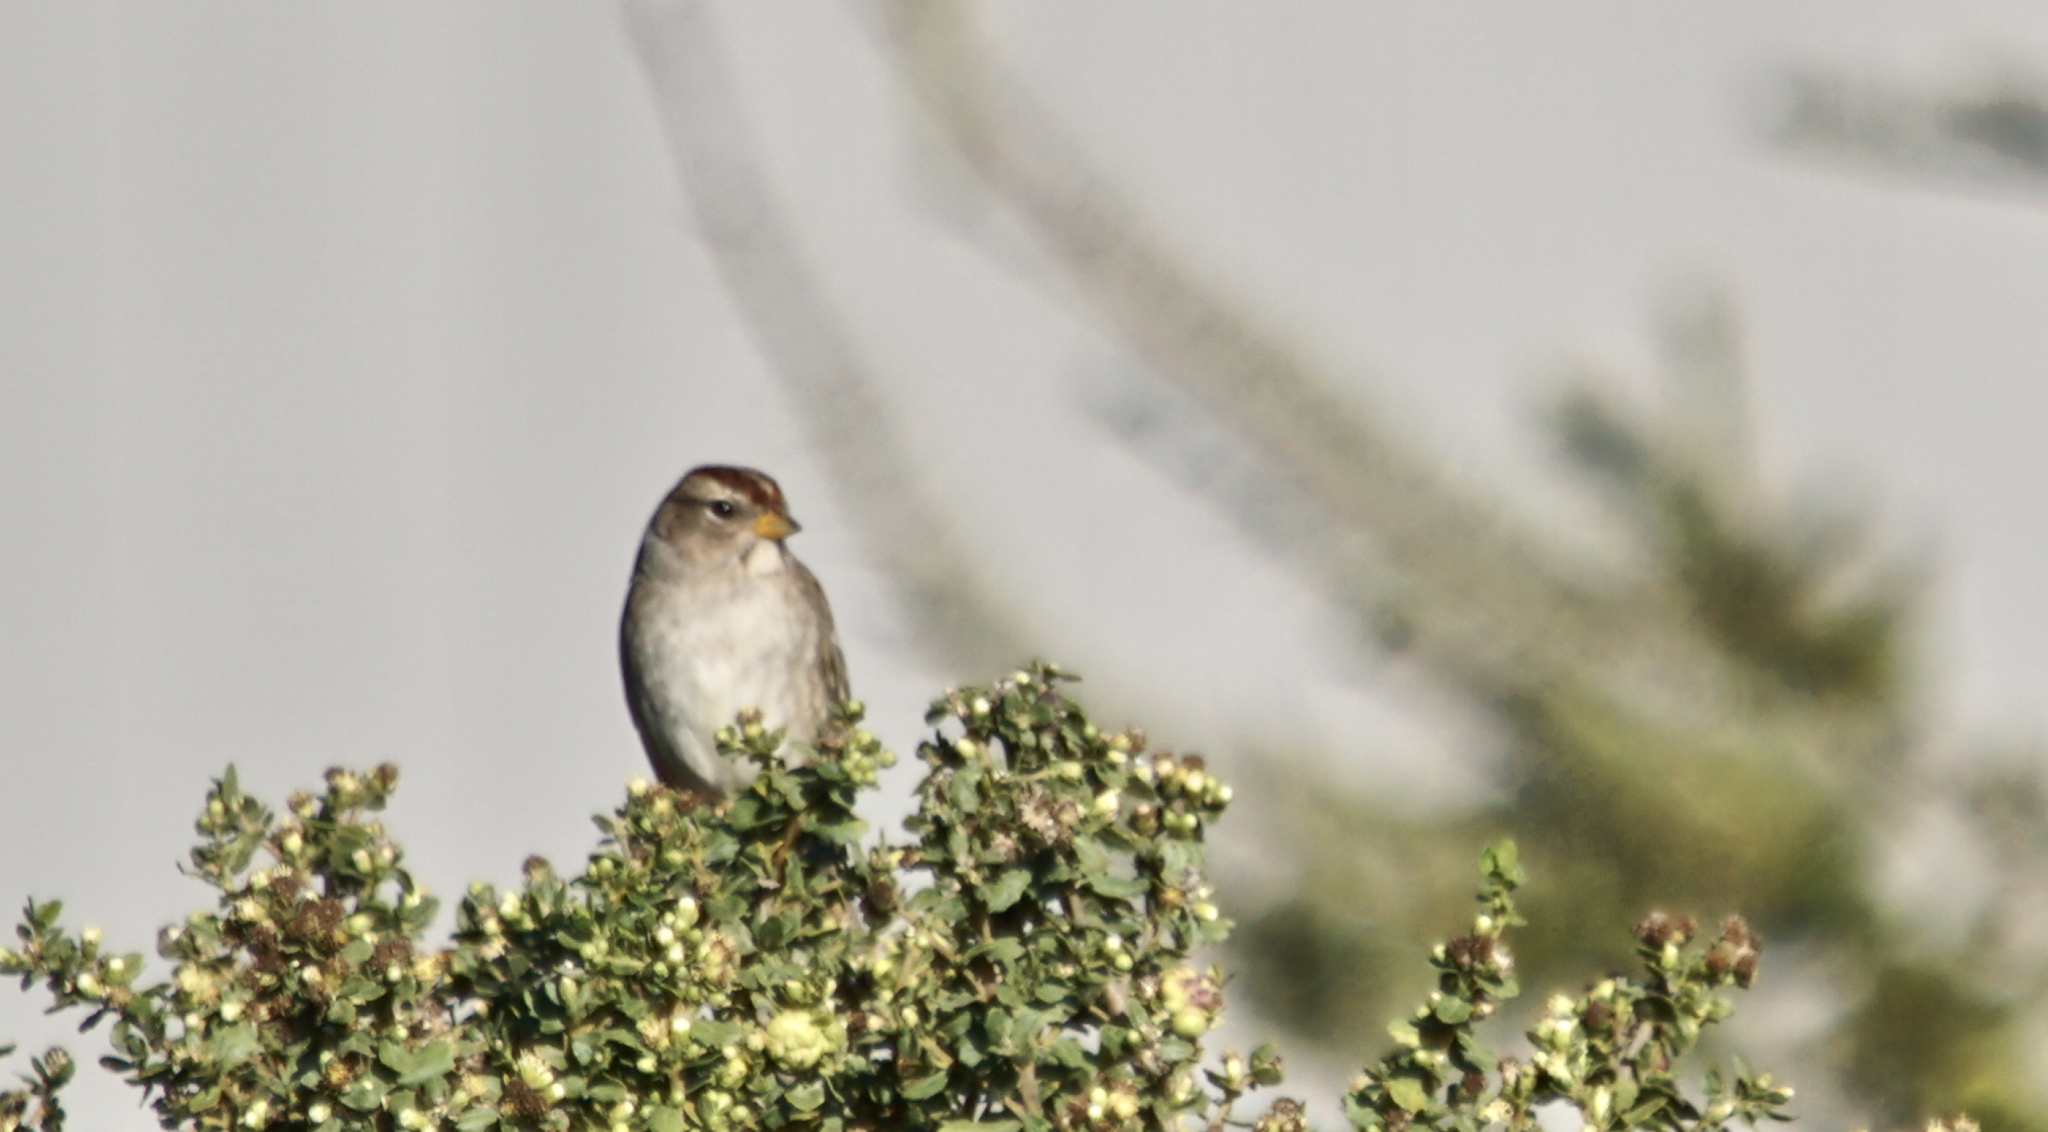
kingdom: Animalia
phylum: Chordata
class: Aves
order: Passeriformes
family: Passerellidae
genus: Zonotrichia
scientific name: Zonotrichia leucophrys
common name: White-crowned sparrow
